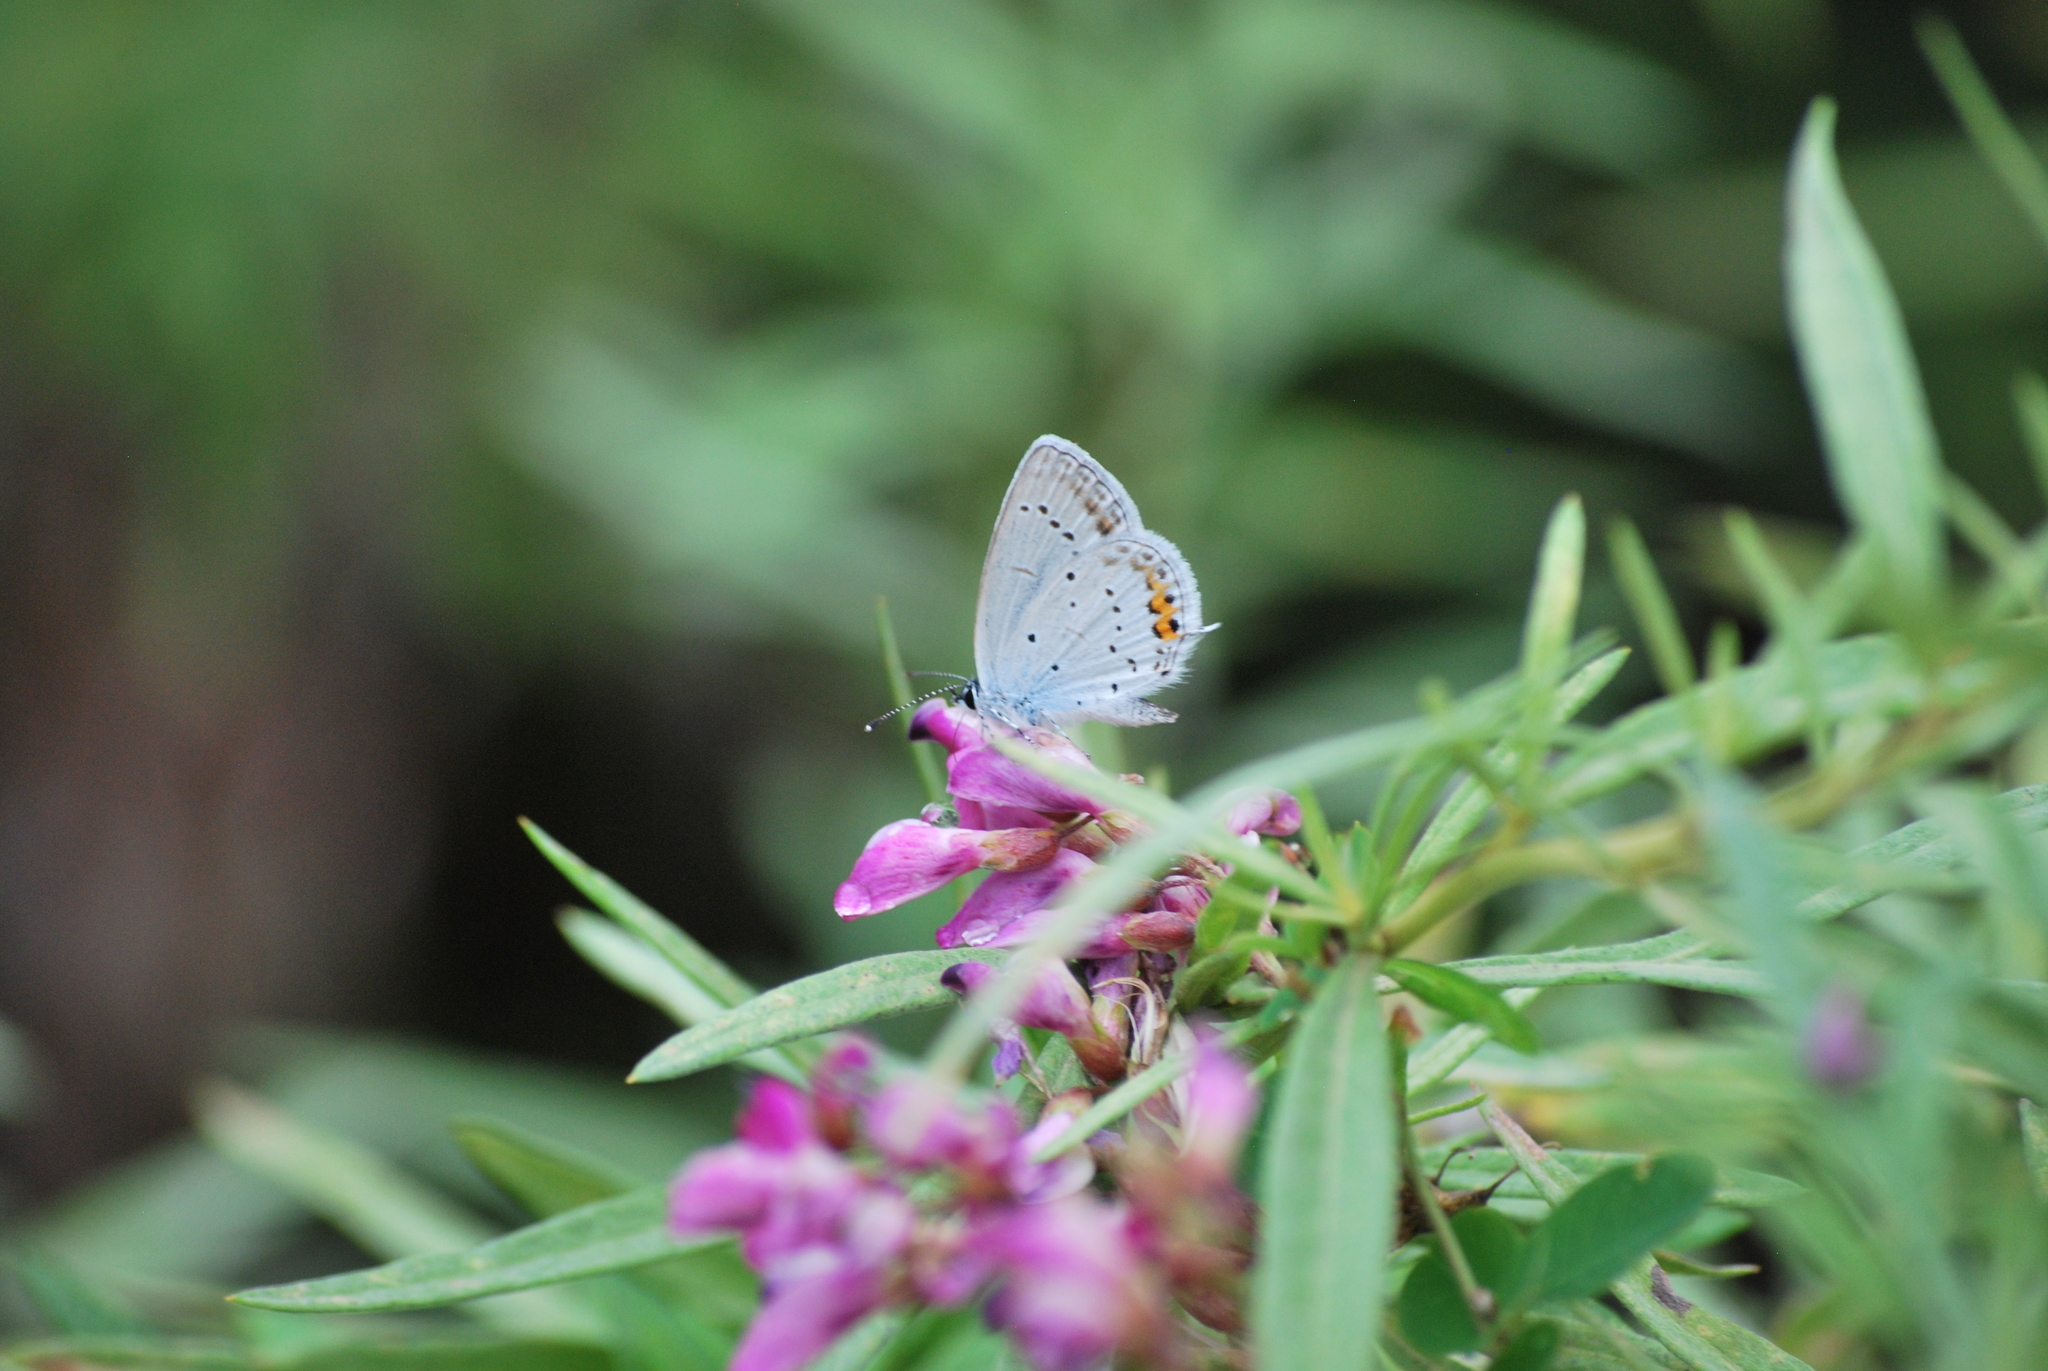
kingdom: Animalia
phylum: Arthropoda
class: Insecta
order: Lepidoptera
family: Lycaenidae
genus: Elkalyce
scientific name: Elkalyce argiades
